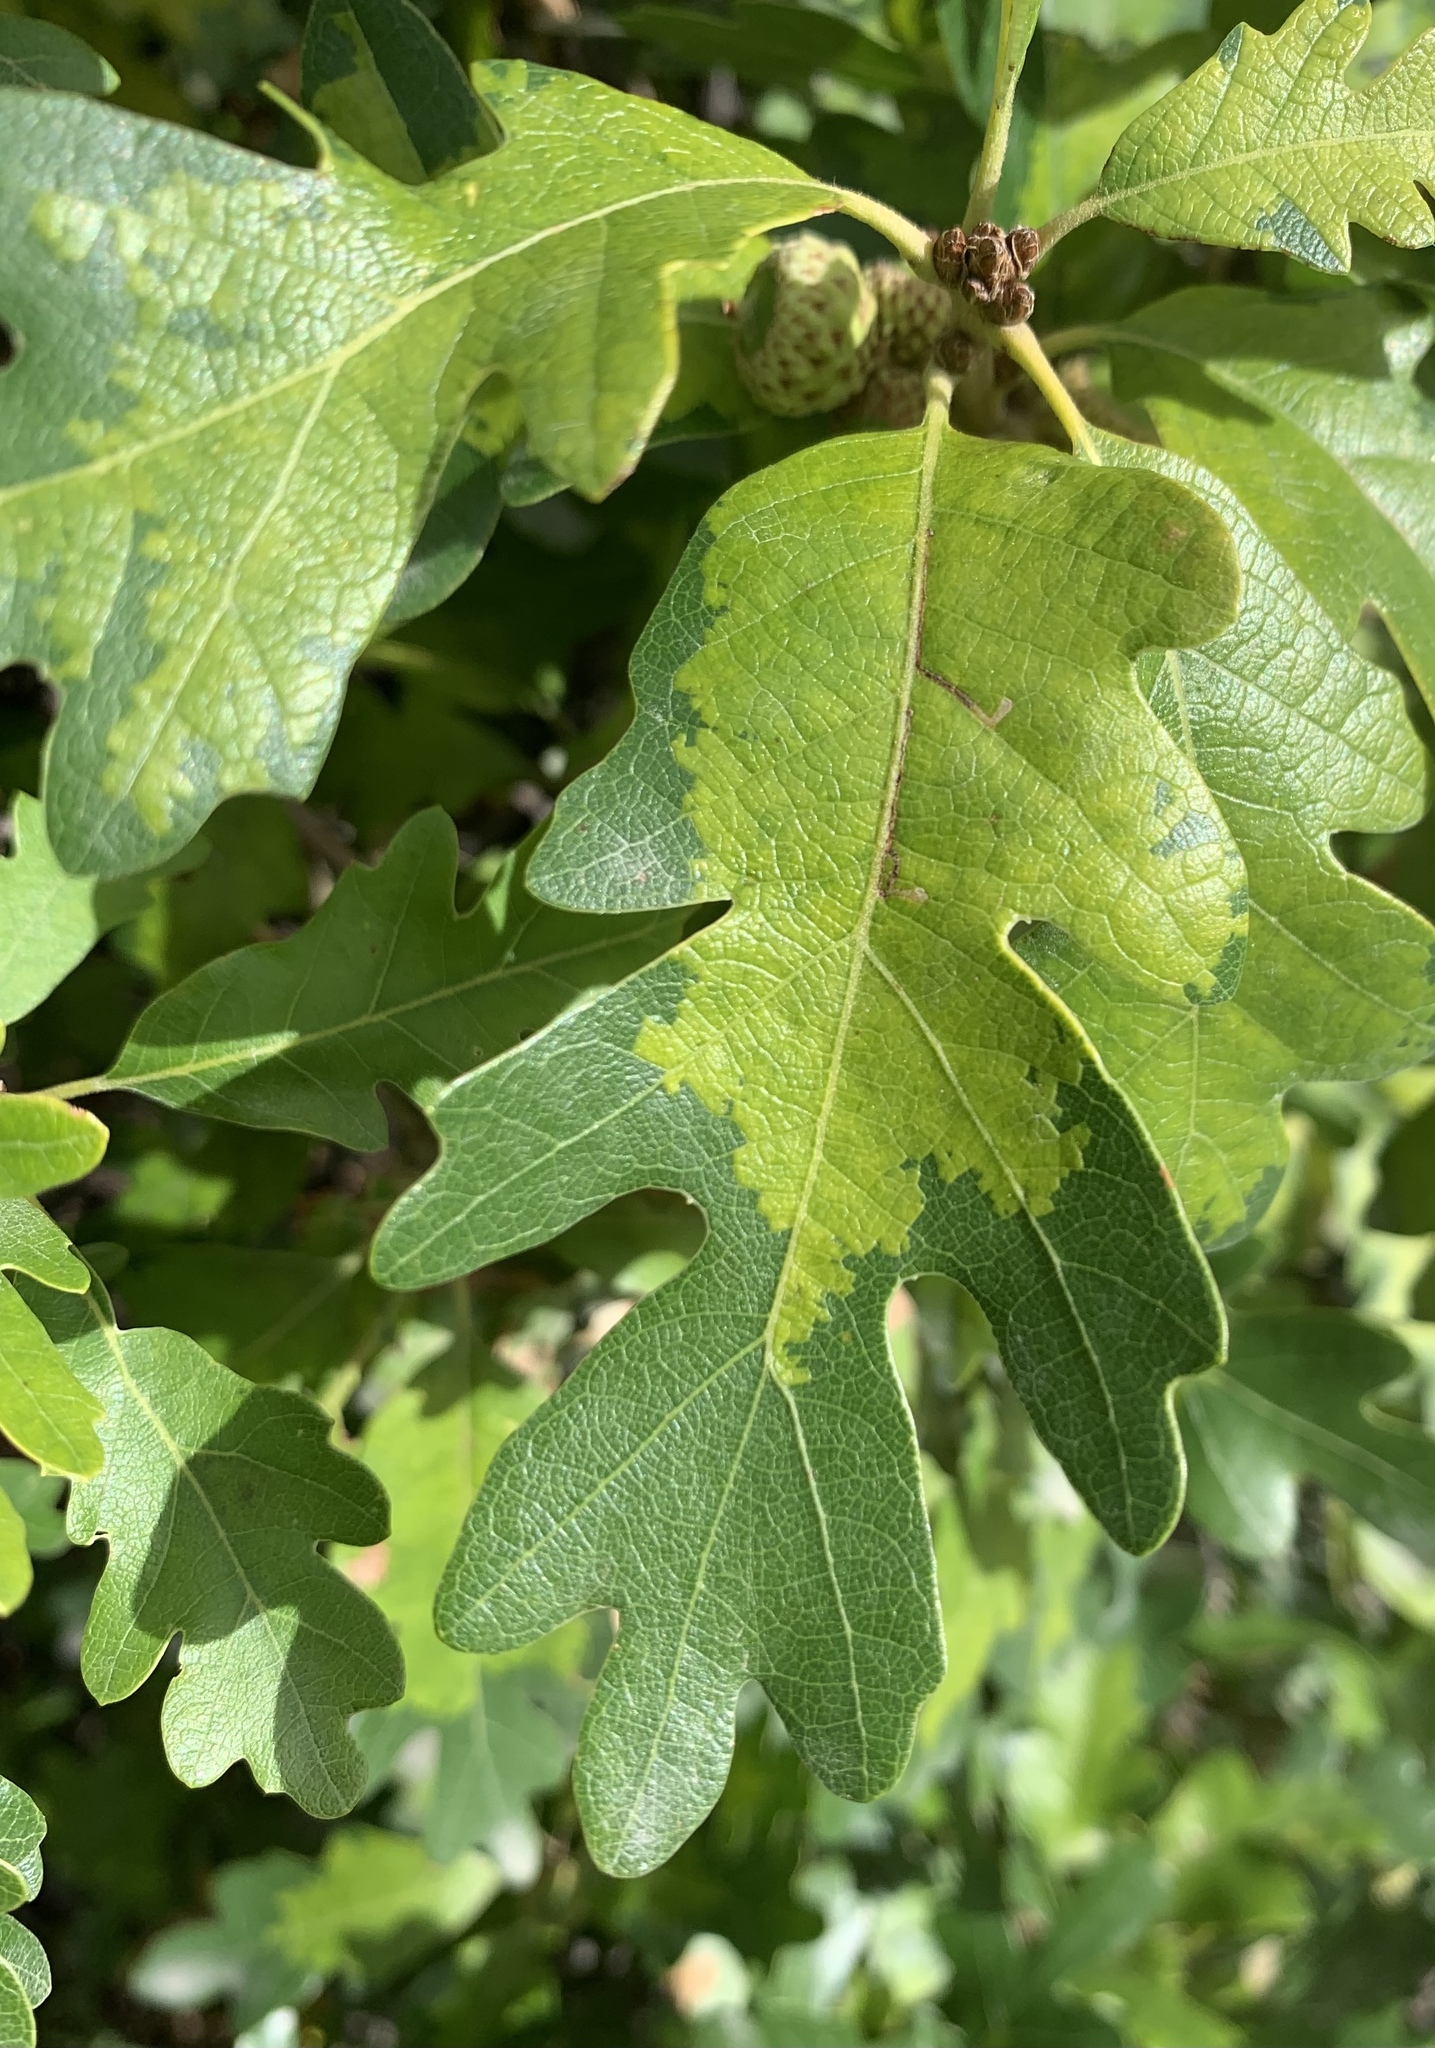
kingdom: Fungi
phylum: Ascomycota
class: Taphrinomycetes
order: Taphrinales
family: Taphrinaceae
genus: Taphrina
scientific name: Taphrina caerulescens
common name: Oak leaf blister
